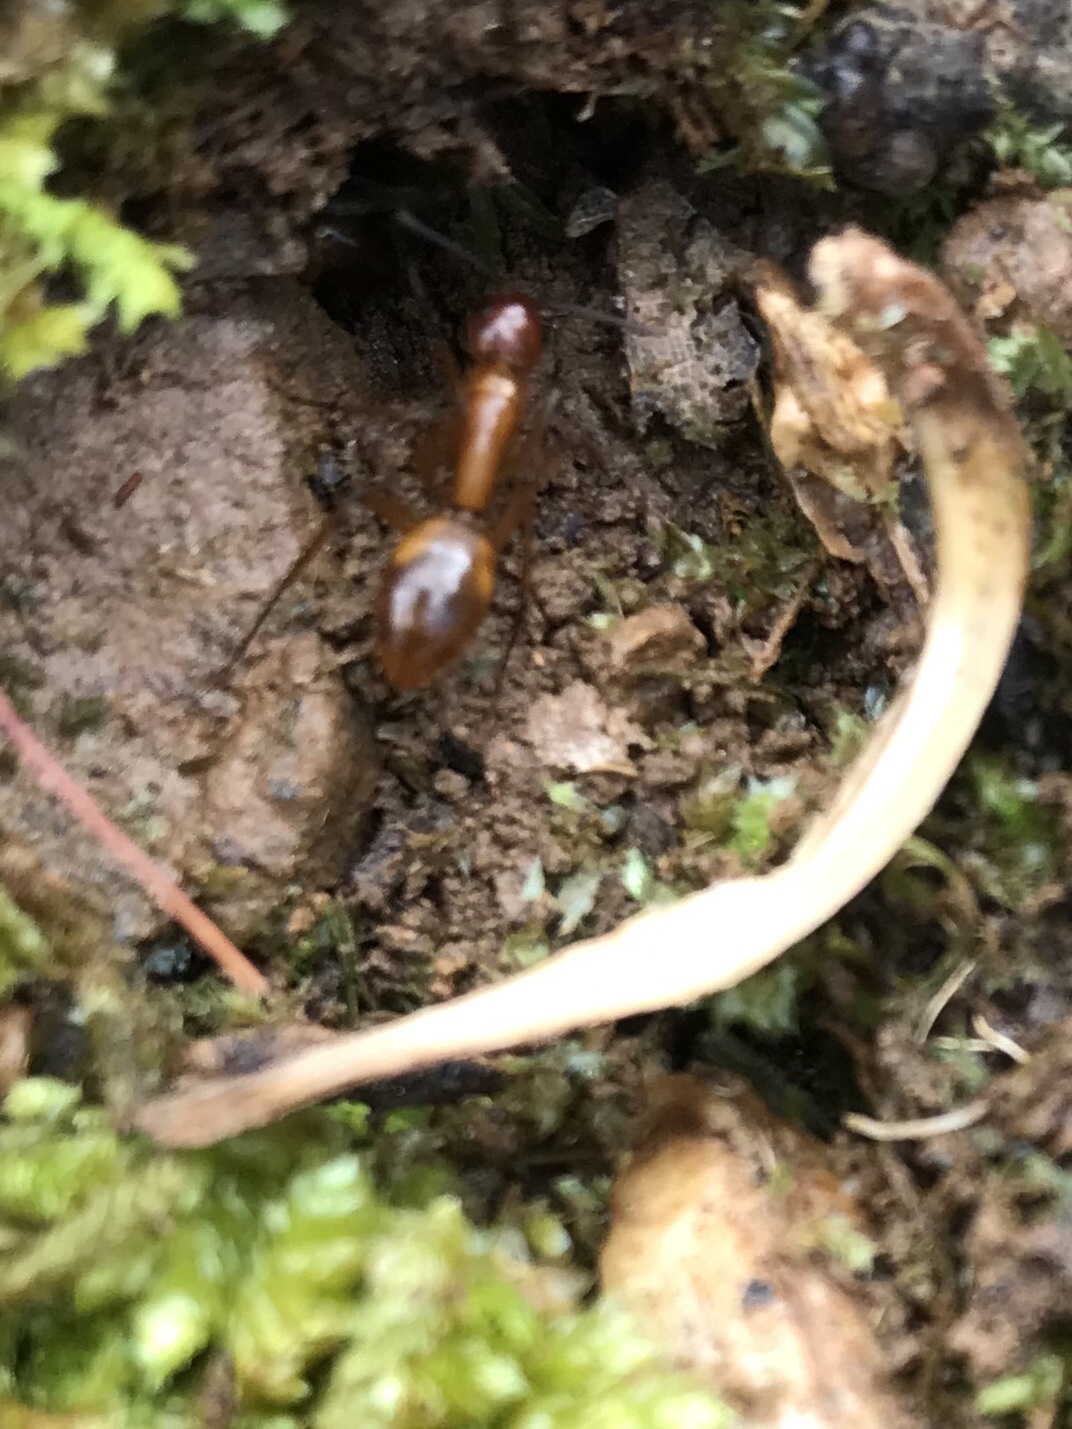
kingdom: Animalia
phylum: Arthropoda
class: Insecta
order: Hymenoptera
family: Formicidae
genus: Camponotus
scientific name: Camponotus castaneus
